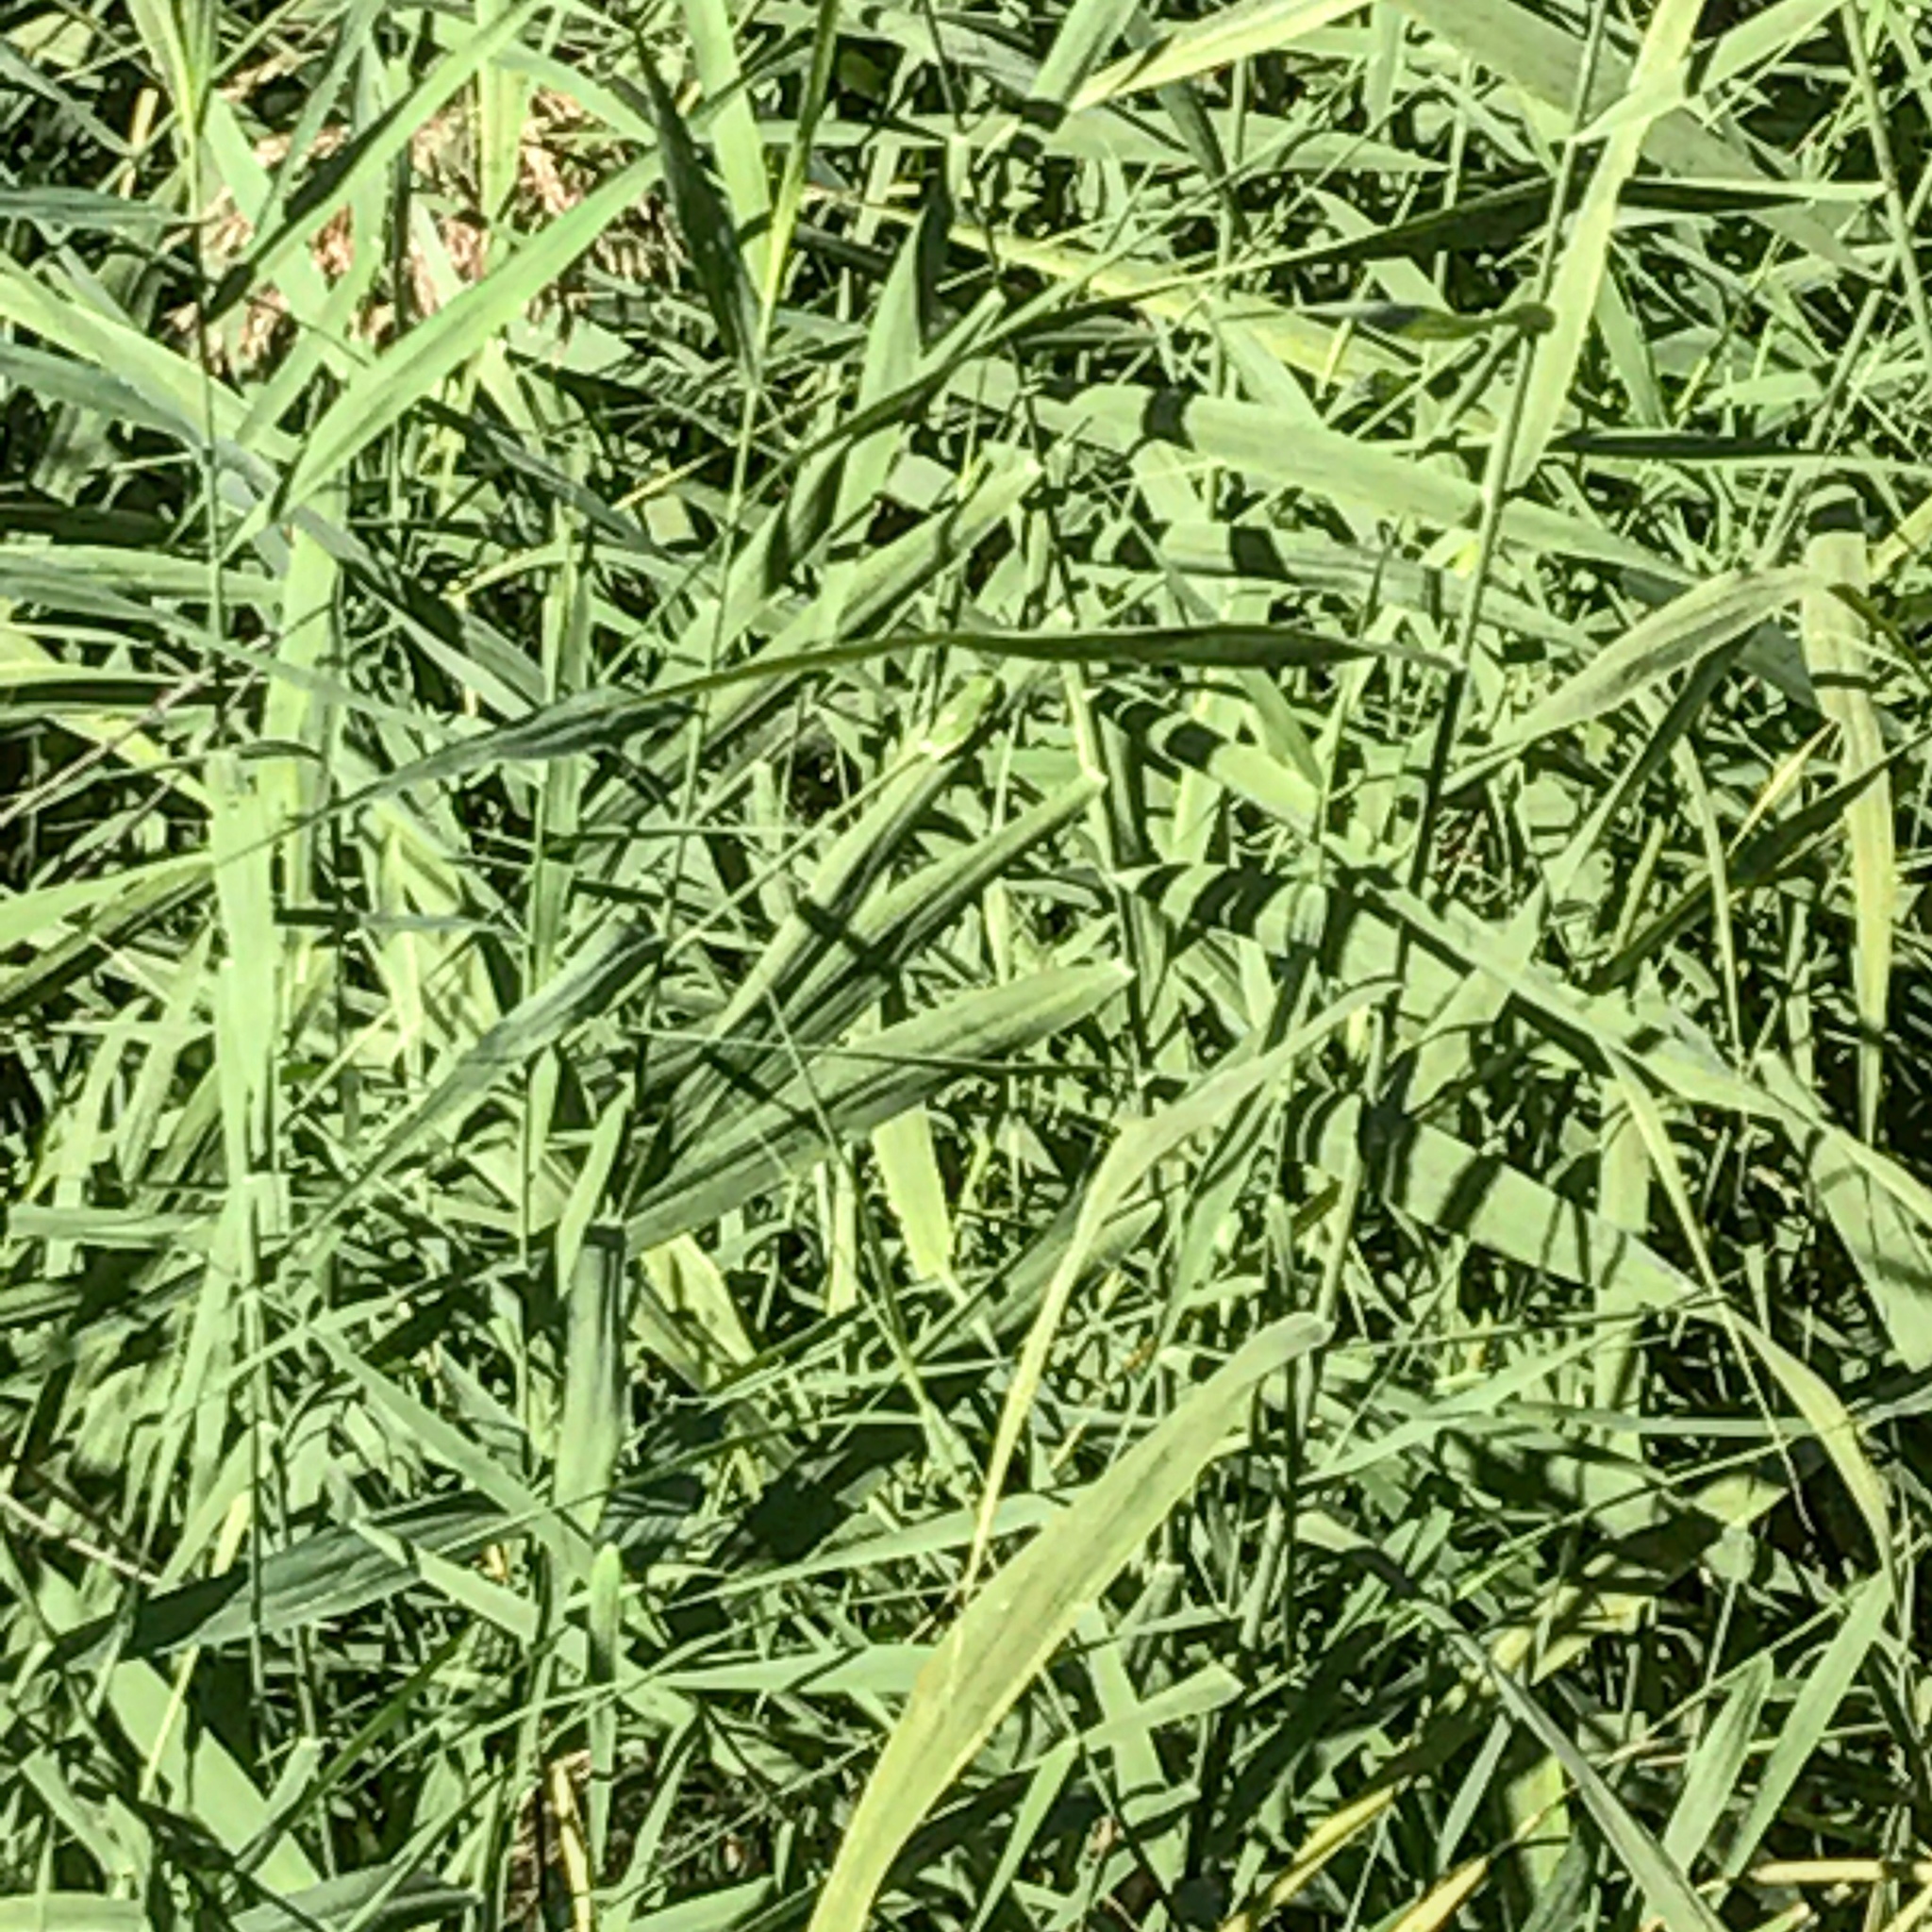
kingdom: Animalia
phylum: Chordata
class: Amphibia
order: Anura
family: Hylidae
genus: Dryophytes
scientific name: Dryophytes cinereus
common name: Green treefrog
